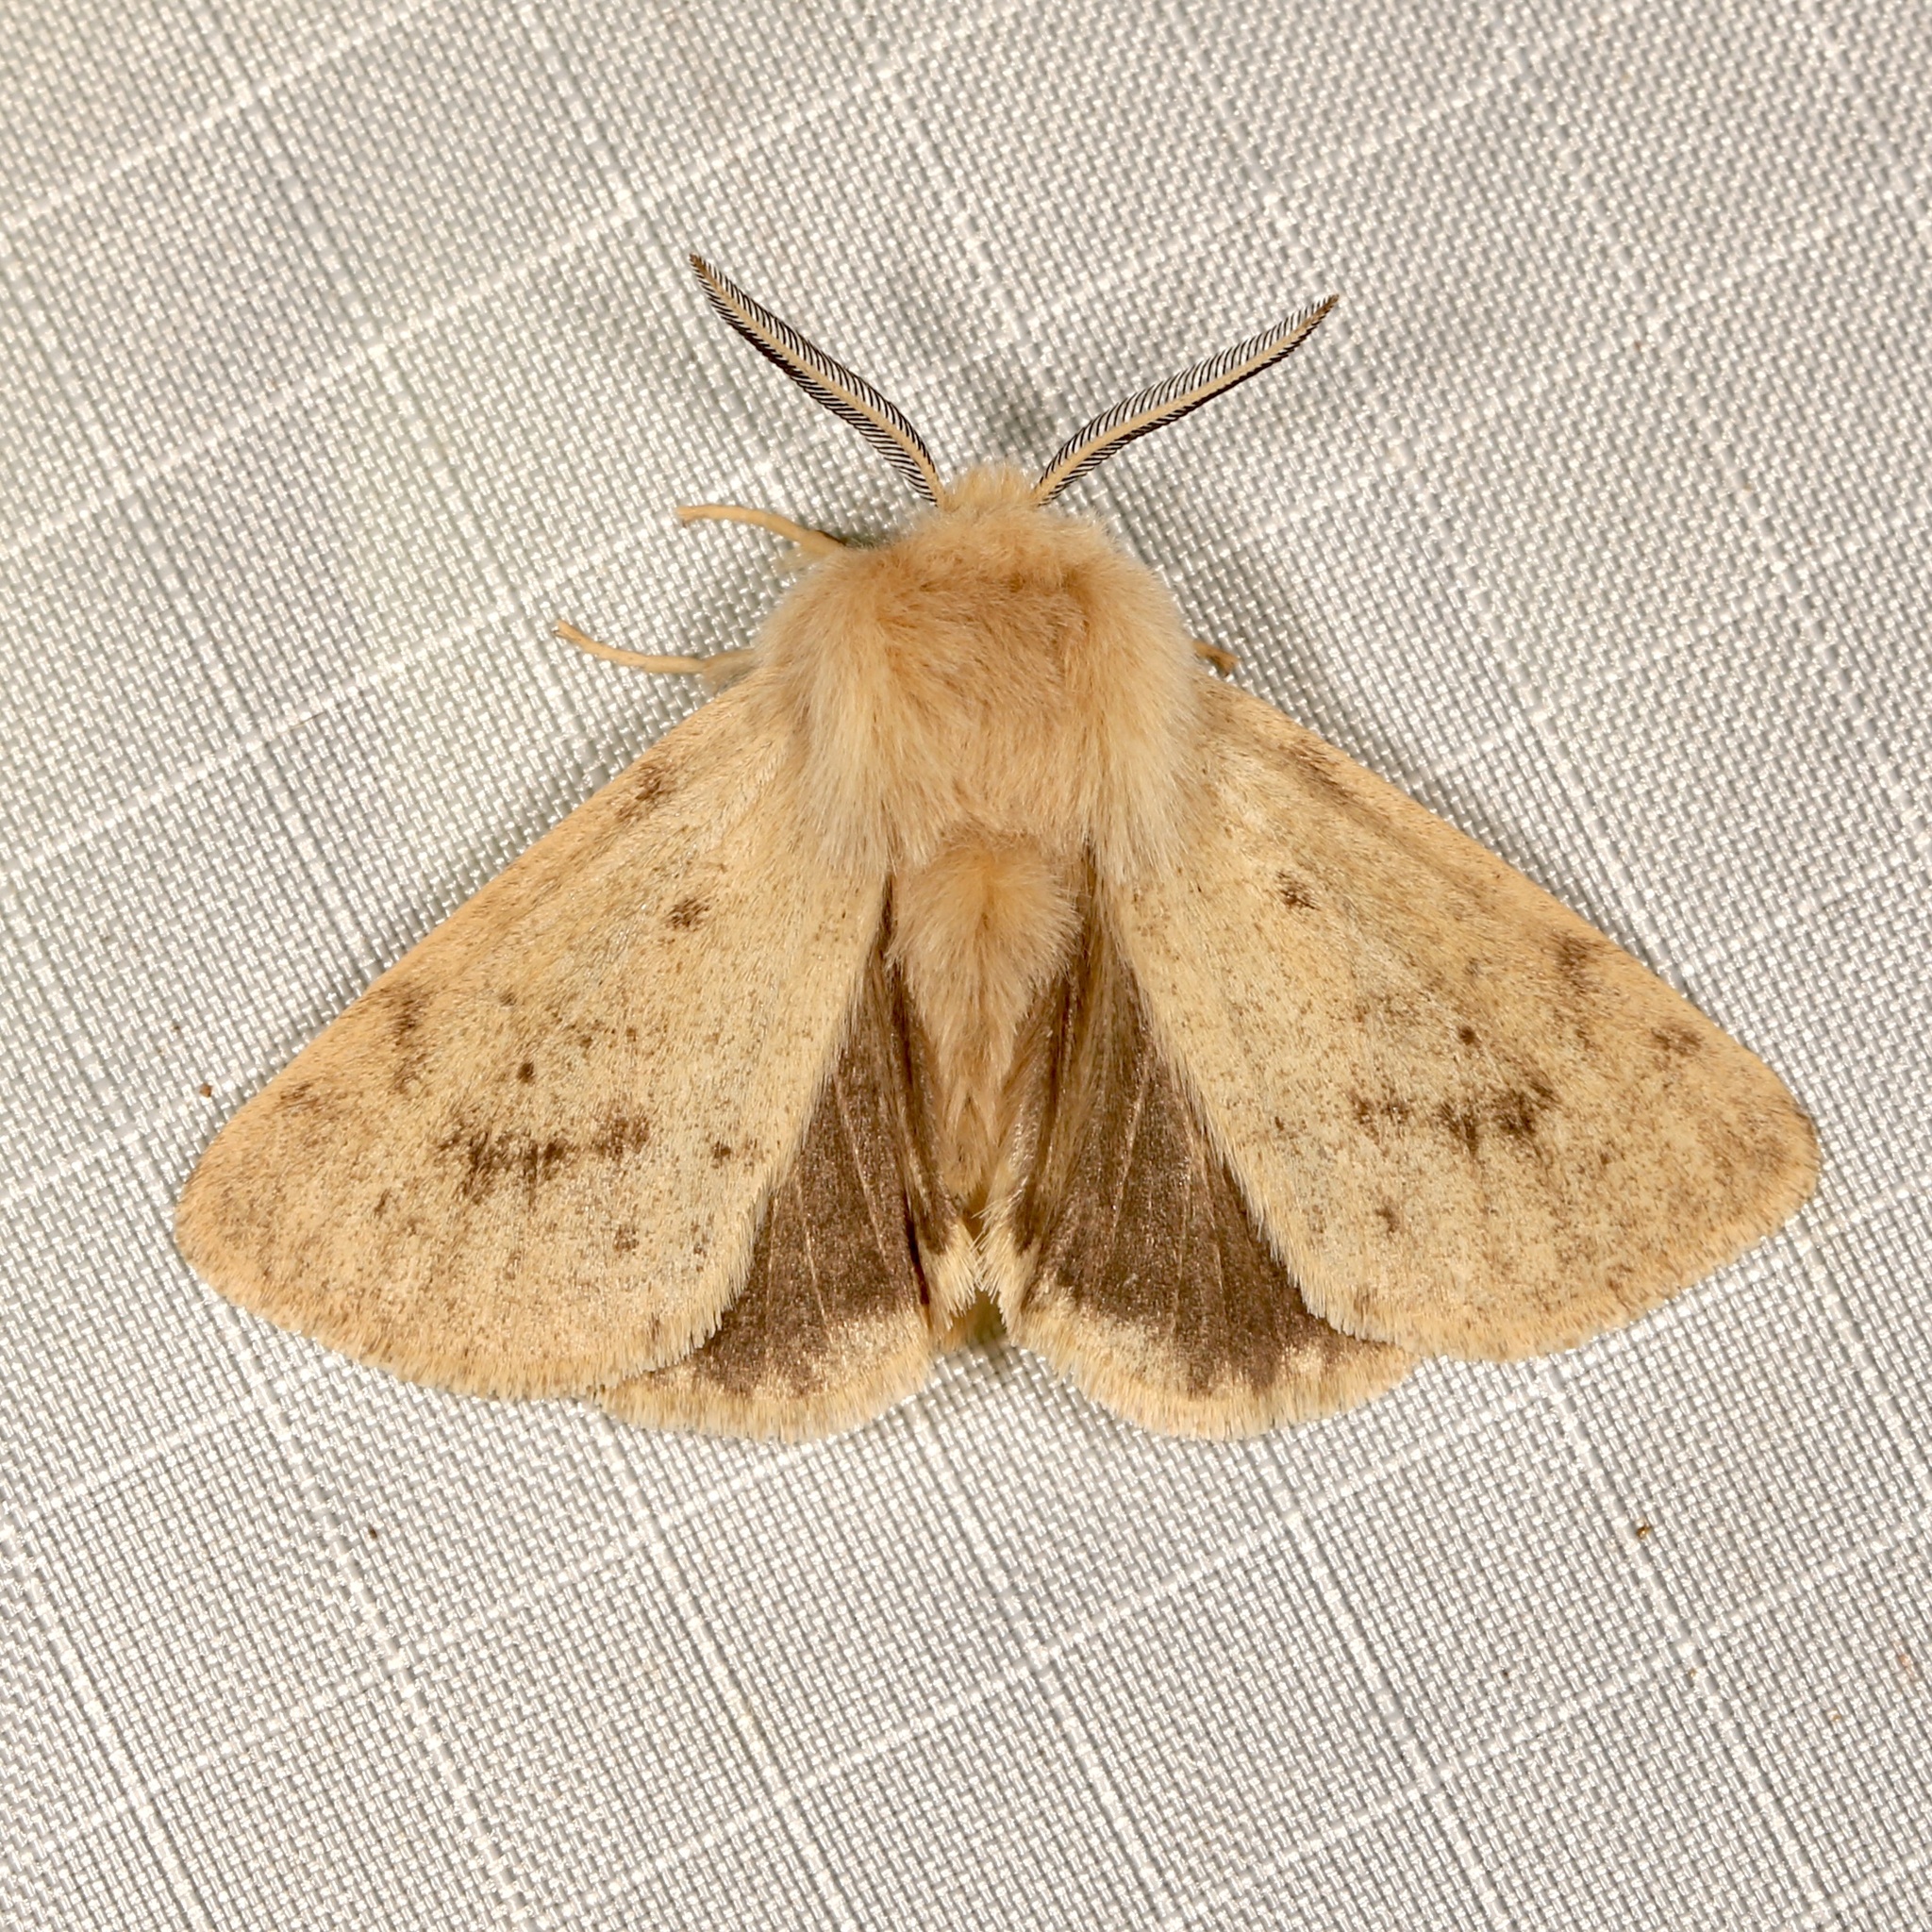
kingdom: Animalia
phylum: Arthropoda
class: Insecta
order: Lepidoptera
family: Erebidae
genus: Spilosoma
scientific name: Spilosoma vagans
